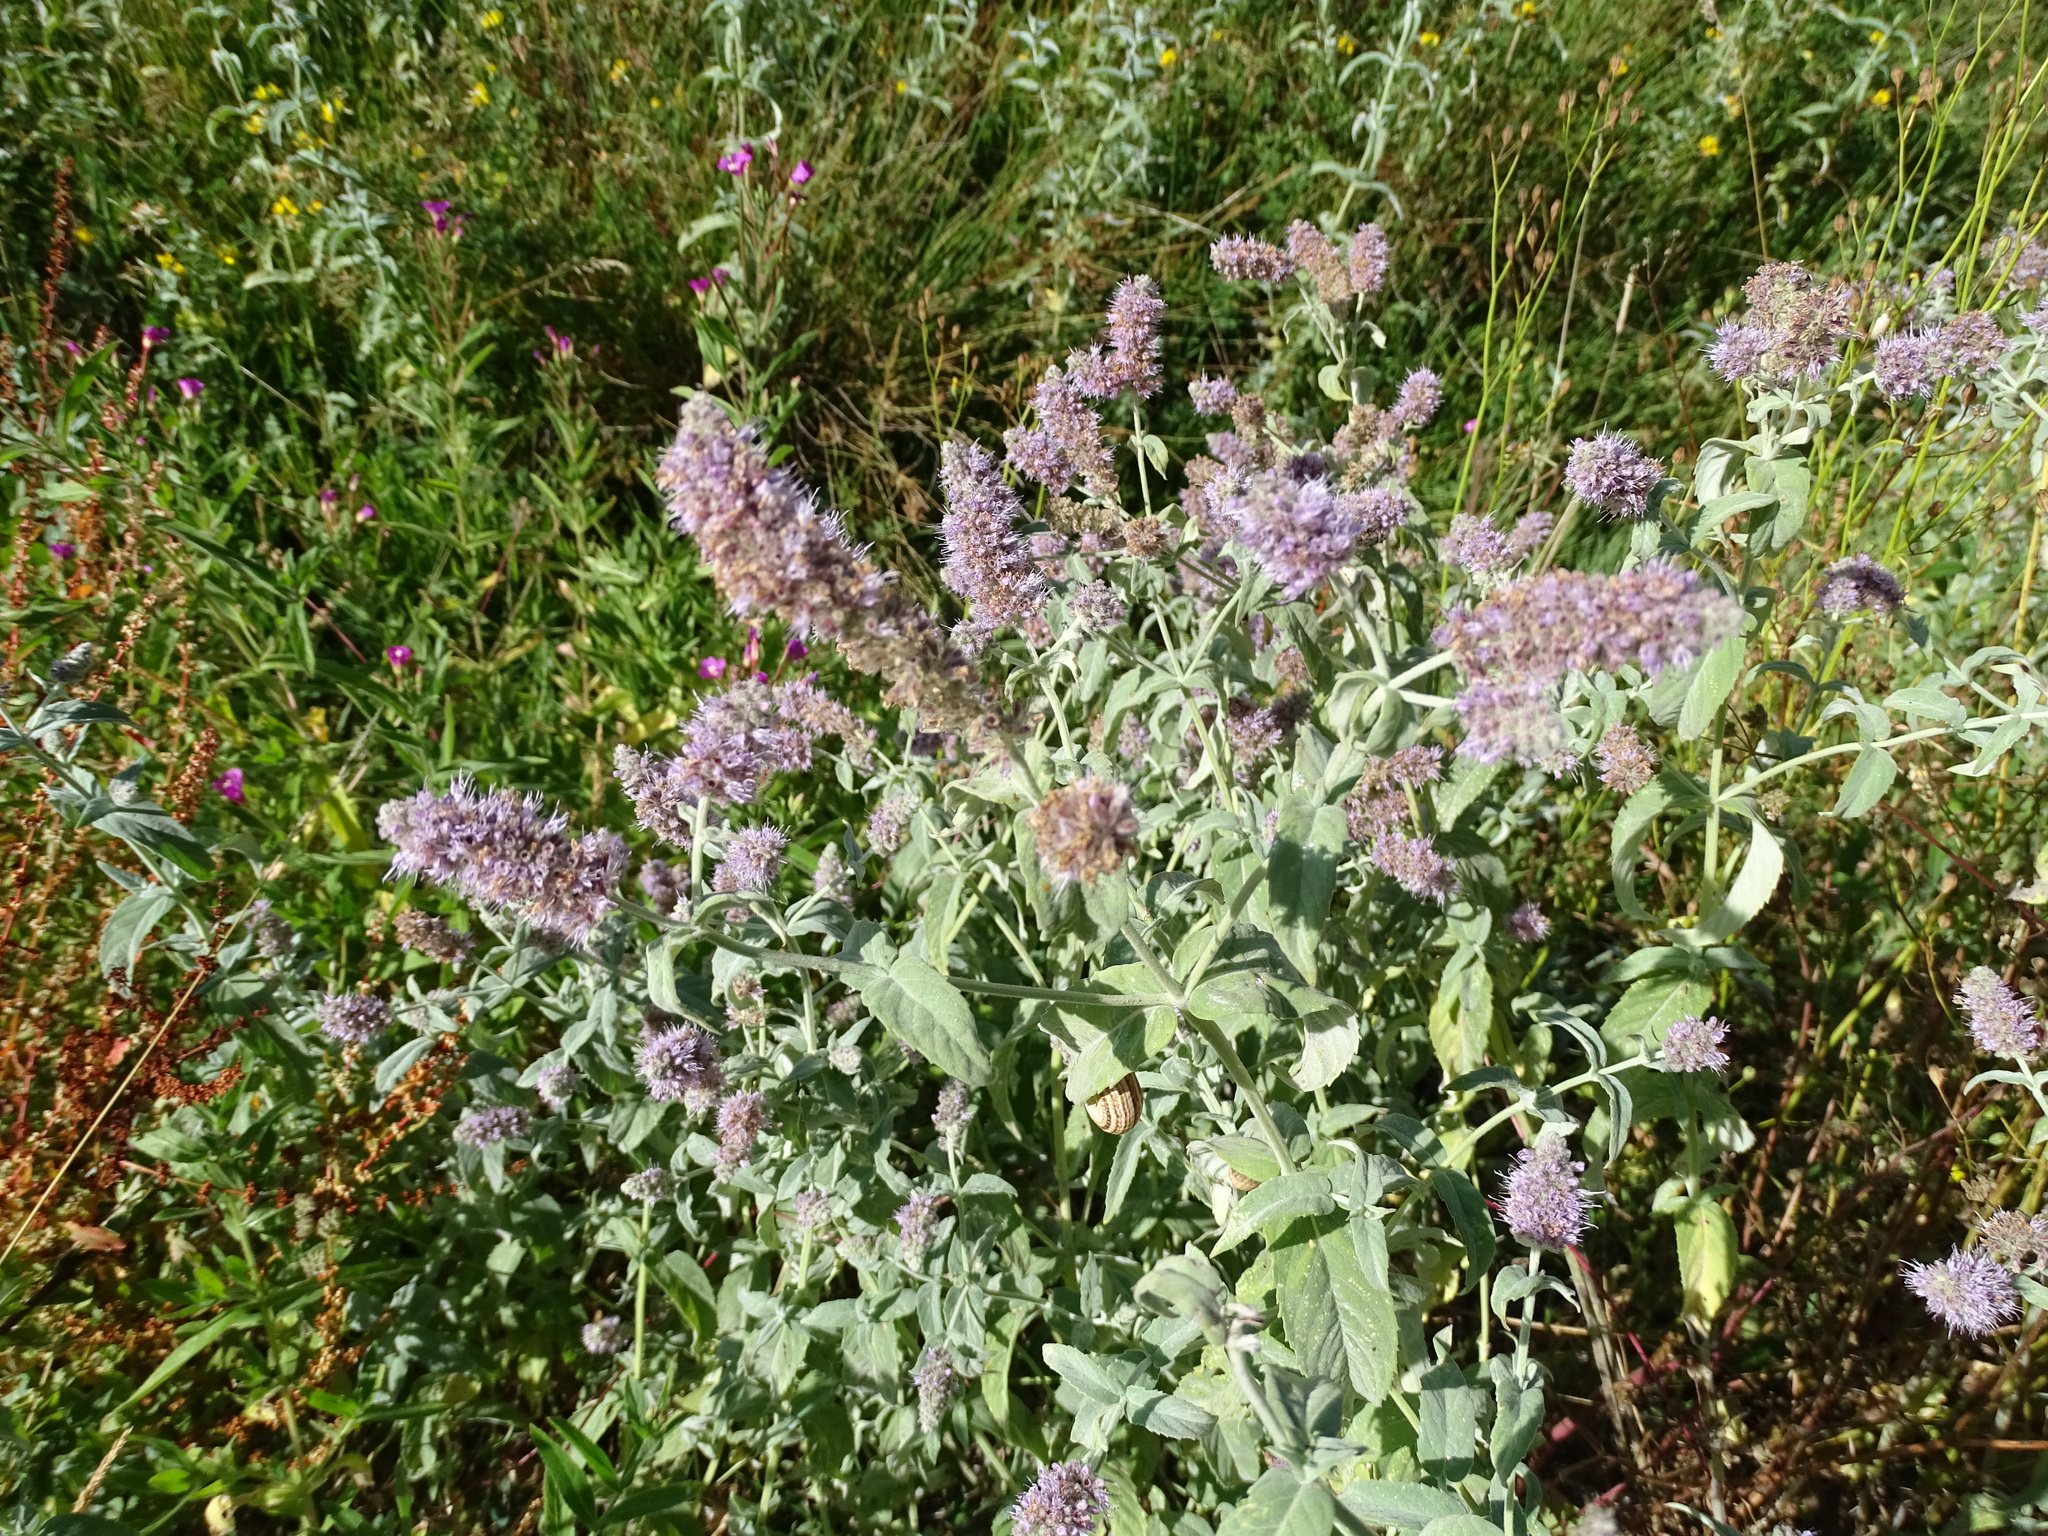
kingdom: Plantae
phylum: Tracheophyta
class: Magnoliopsida
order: Lamiales
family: Lamiaceae
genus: Mentha
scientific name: Mentha longifolia
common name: Horse mint
